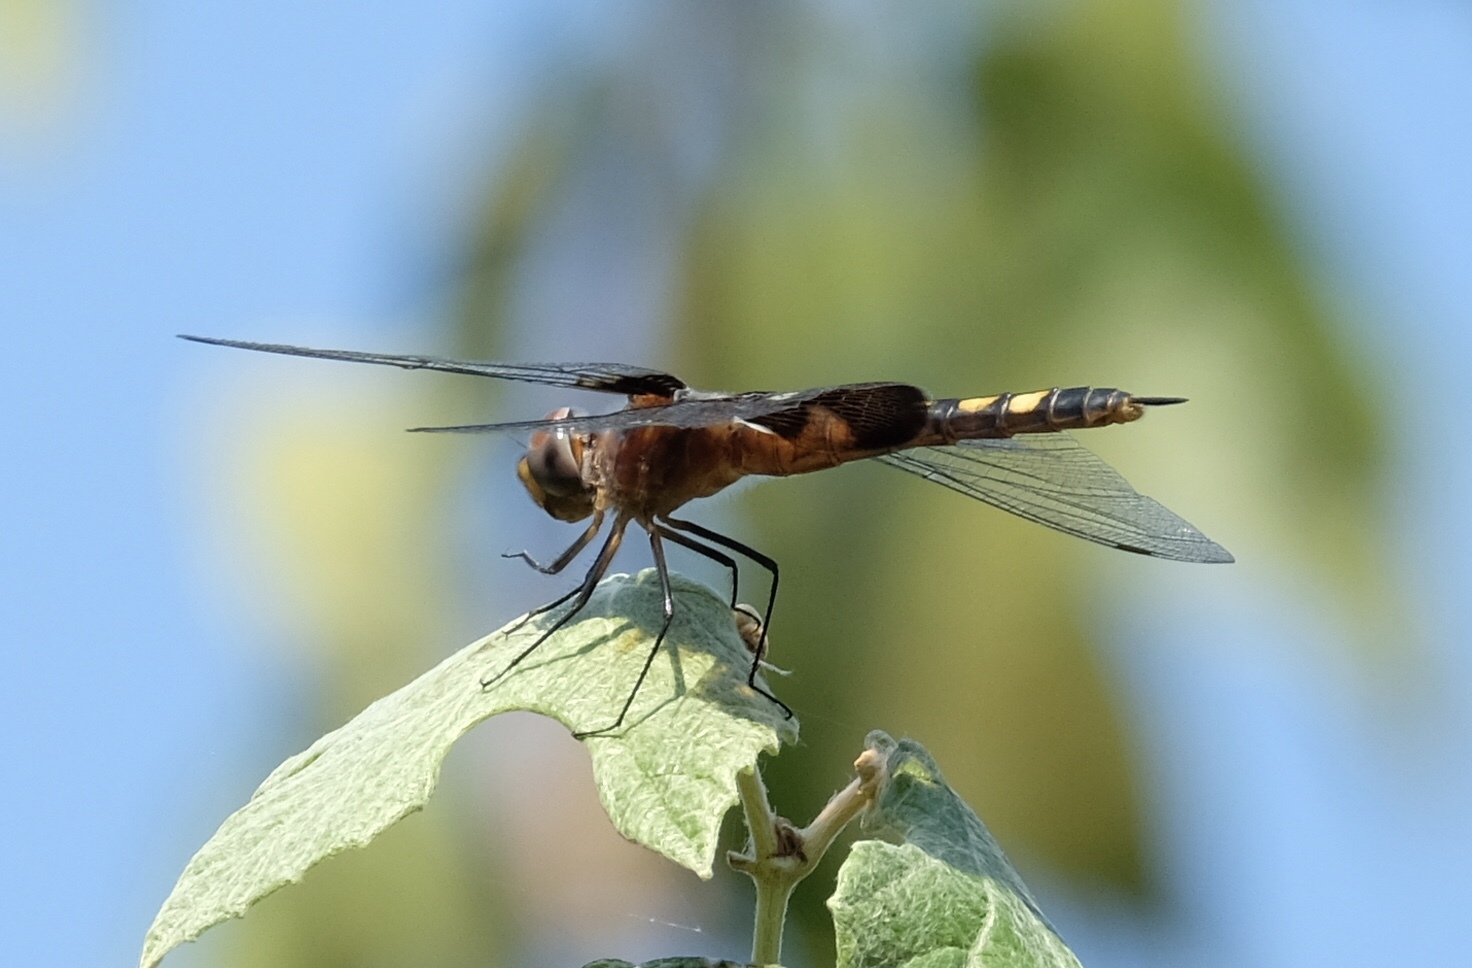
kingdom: Animalia
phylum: Arthropoda
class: Insecta
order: Odonata
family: Libellulidae
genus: Tramea
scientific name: Tramea lacerata
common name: Black saddlebags
